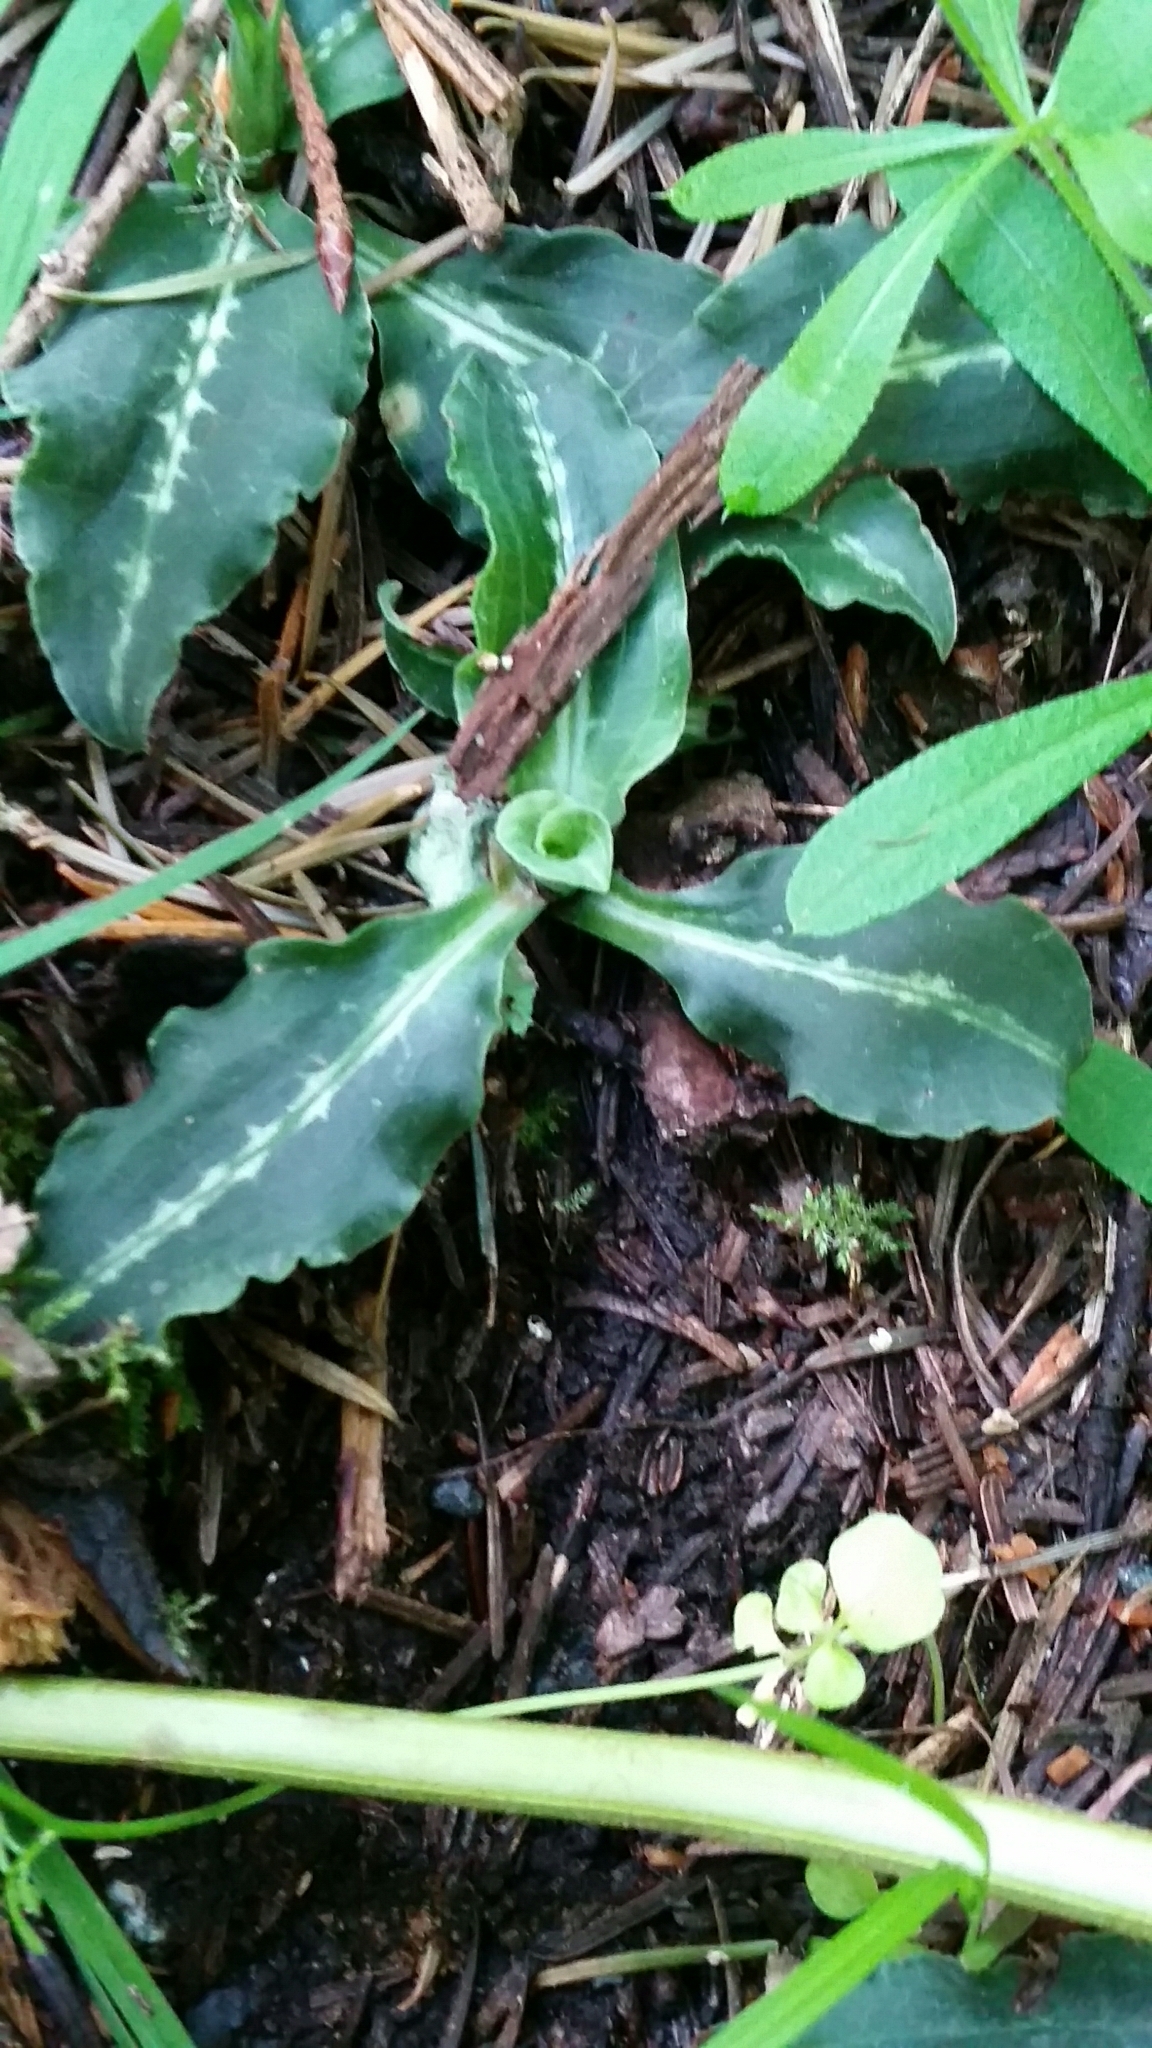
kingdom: Plantae
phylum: Tracheophyta
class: Liliopsida
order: Asparagales
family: Orchidaceae
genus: Goodyera
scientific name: Goodyera oblongifolia
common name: Giant rattlesnake-plantain
